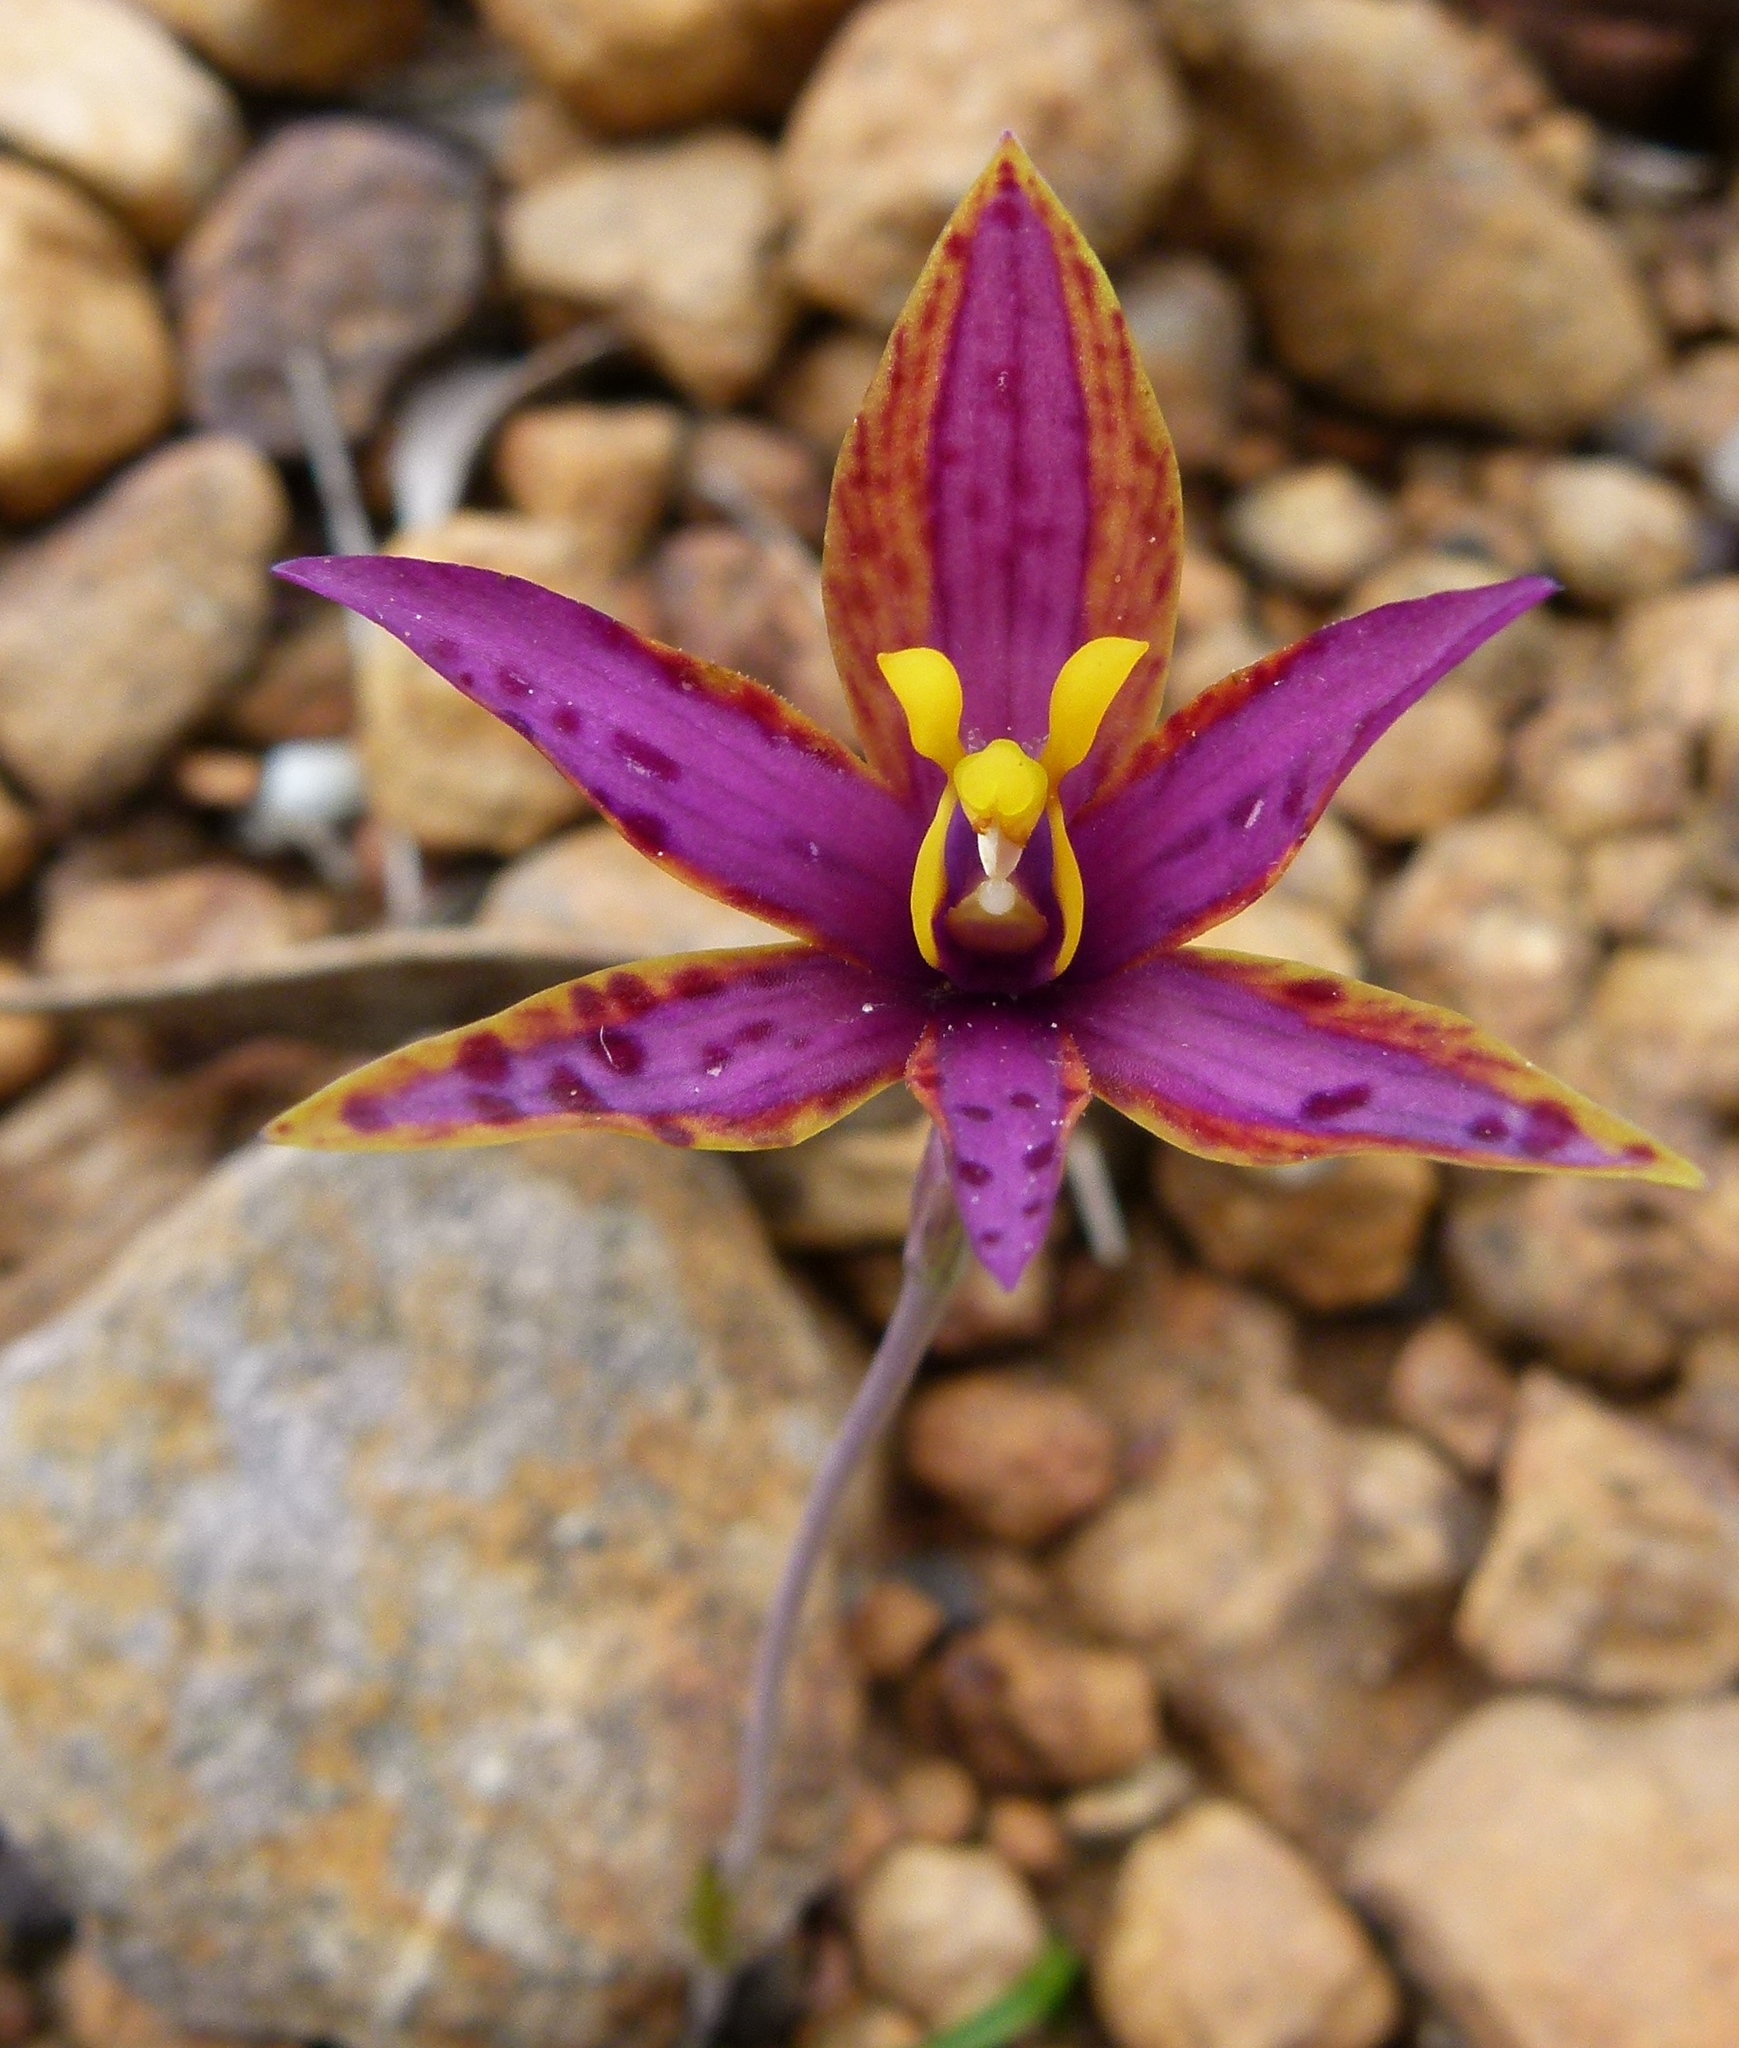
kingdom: Plantae
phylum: Tracheophyta
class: Liliopsida
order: Asparagales
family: Orchidaceae
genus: Thelymitra
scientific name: Thelymitra speciosa
